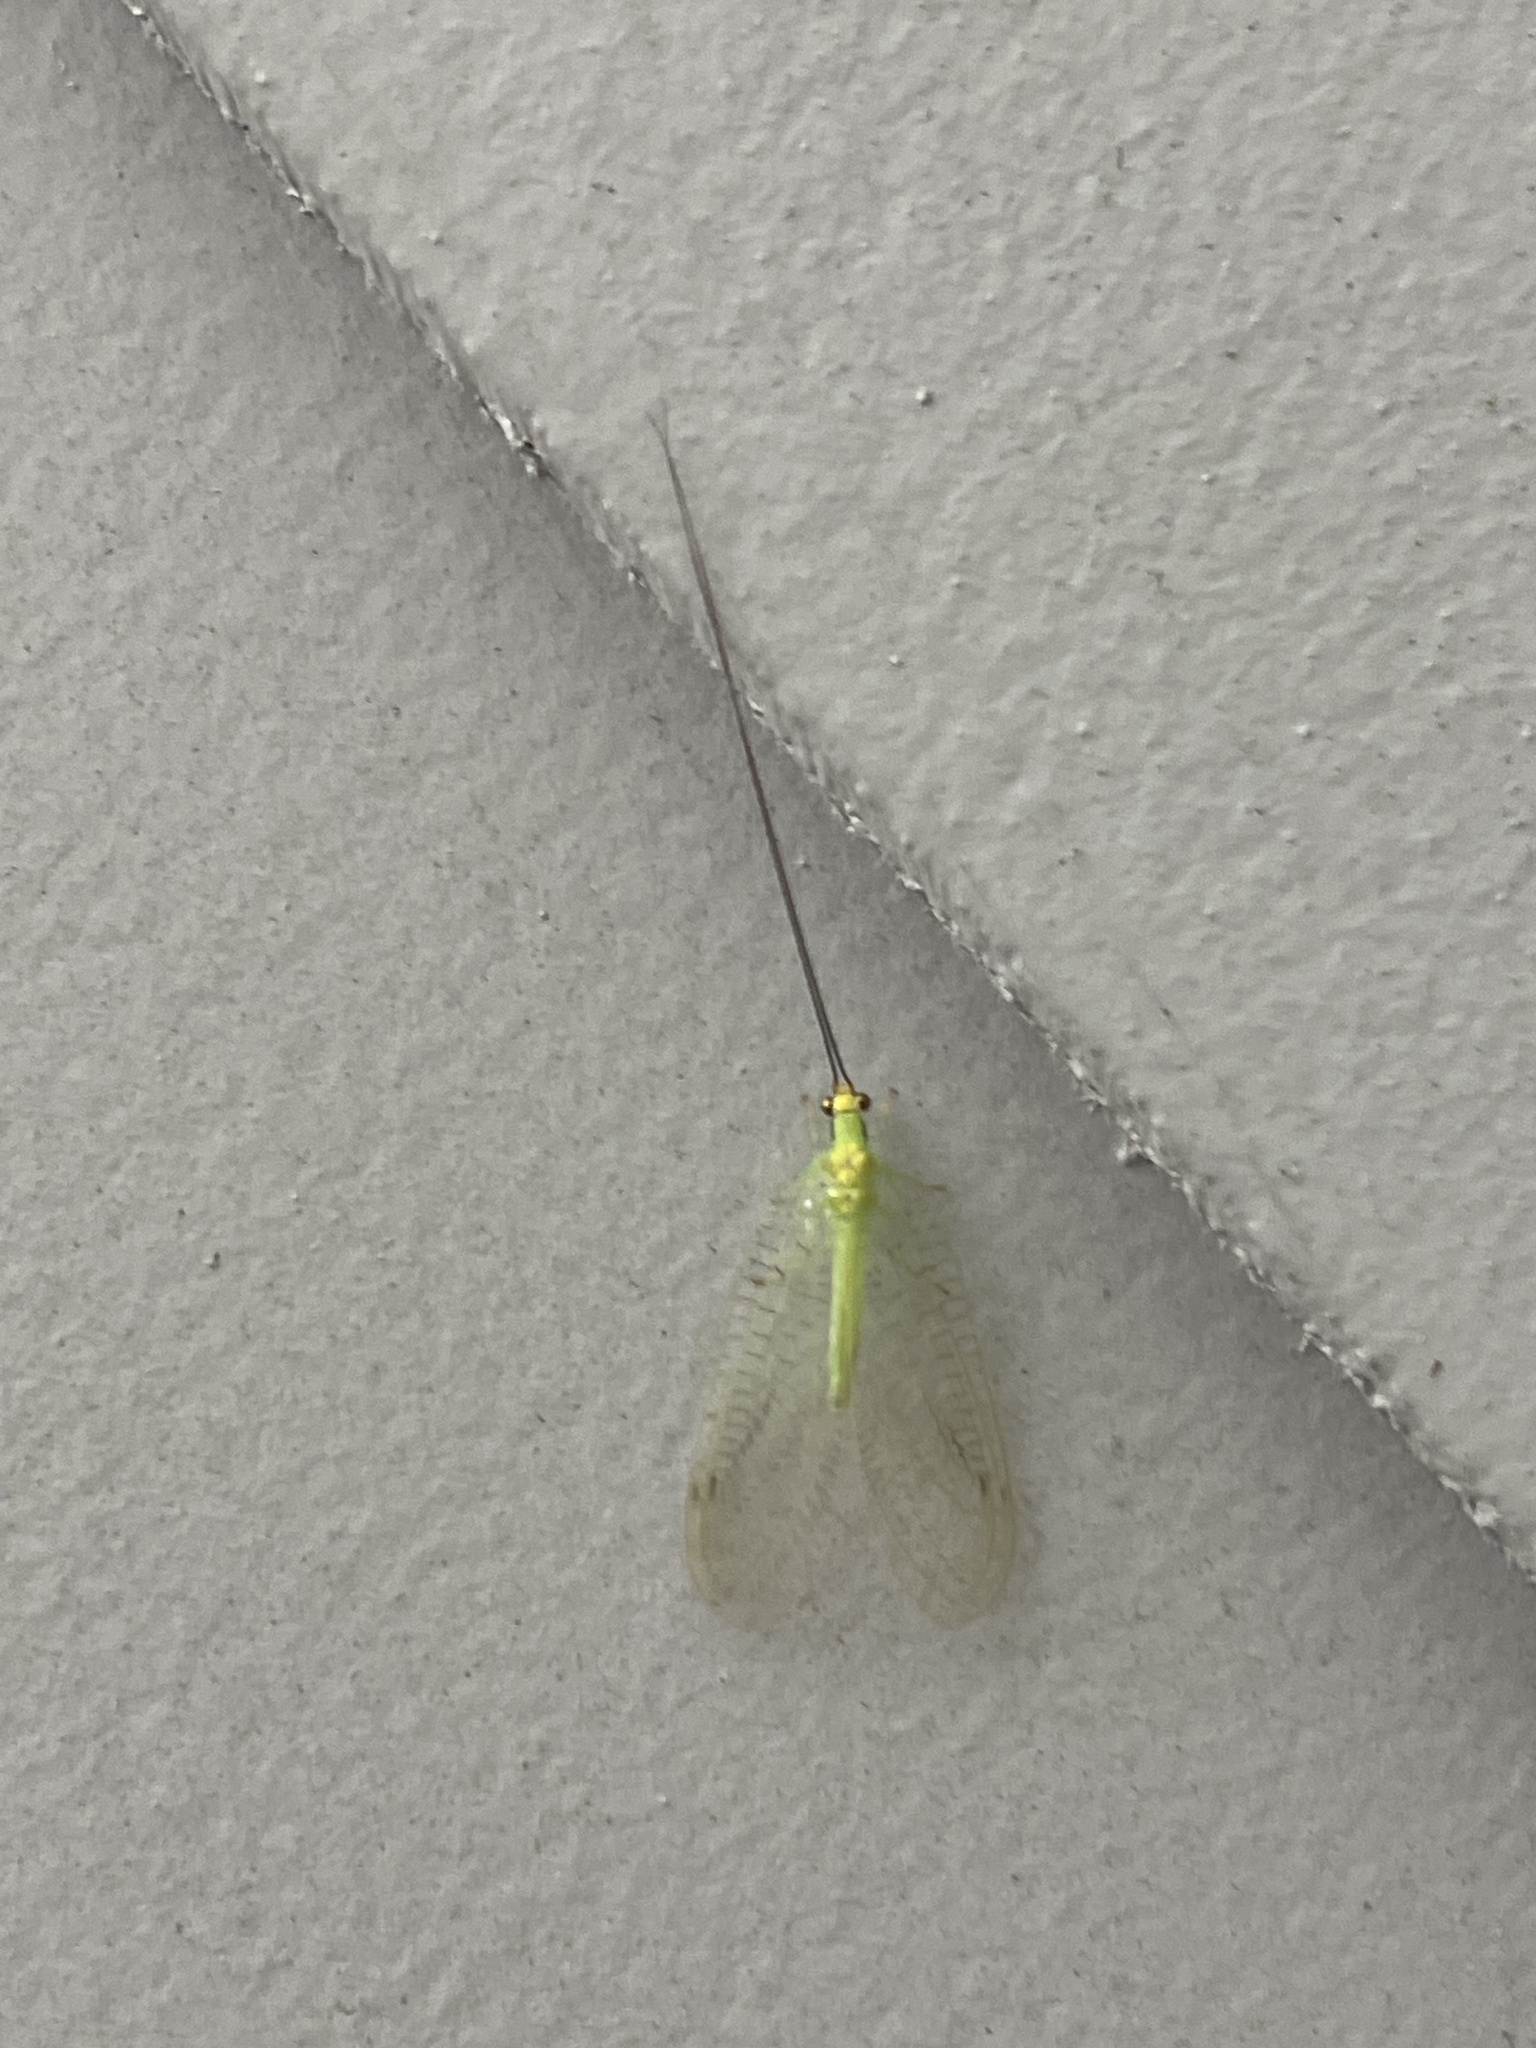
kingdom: Animalia
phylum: Arthropoda
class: Insecta
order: Neuroptera
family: Chrysopidae
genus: Leucochrysa
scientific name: Leucochrysa pavida
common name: Lichen-carrying green lacewing
